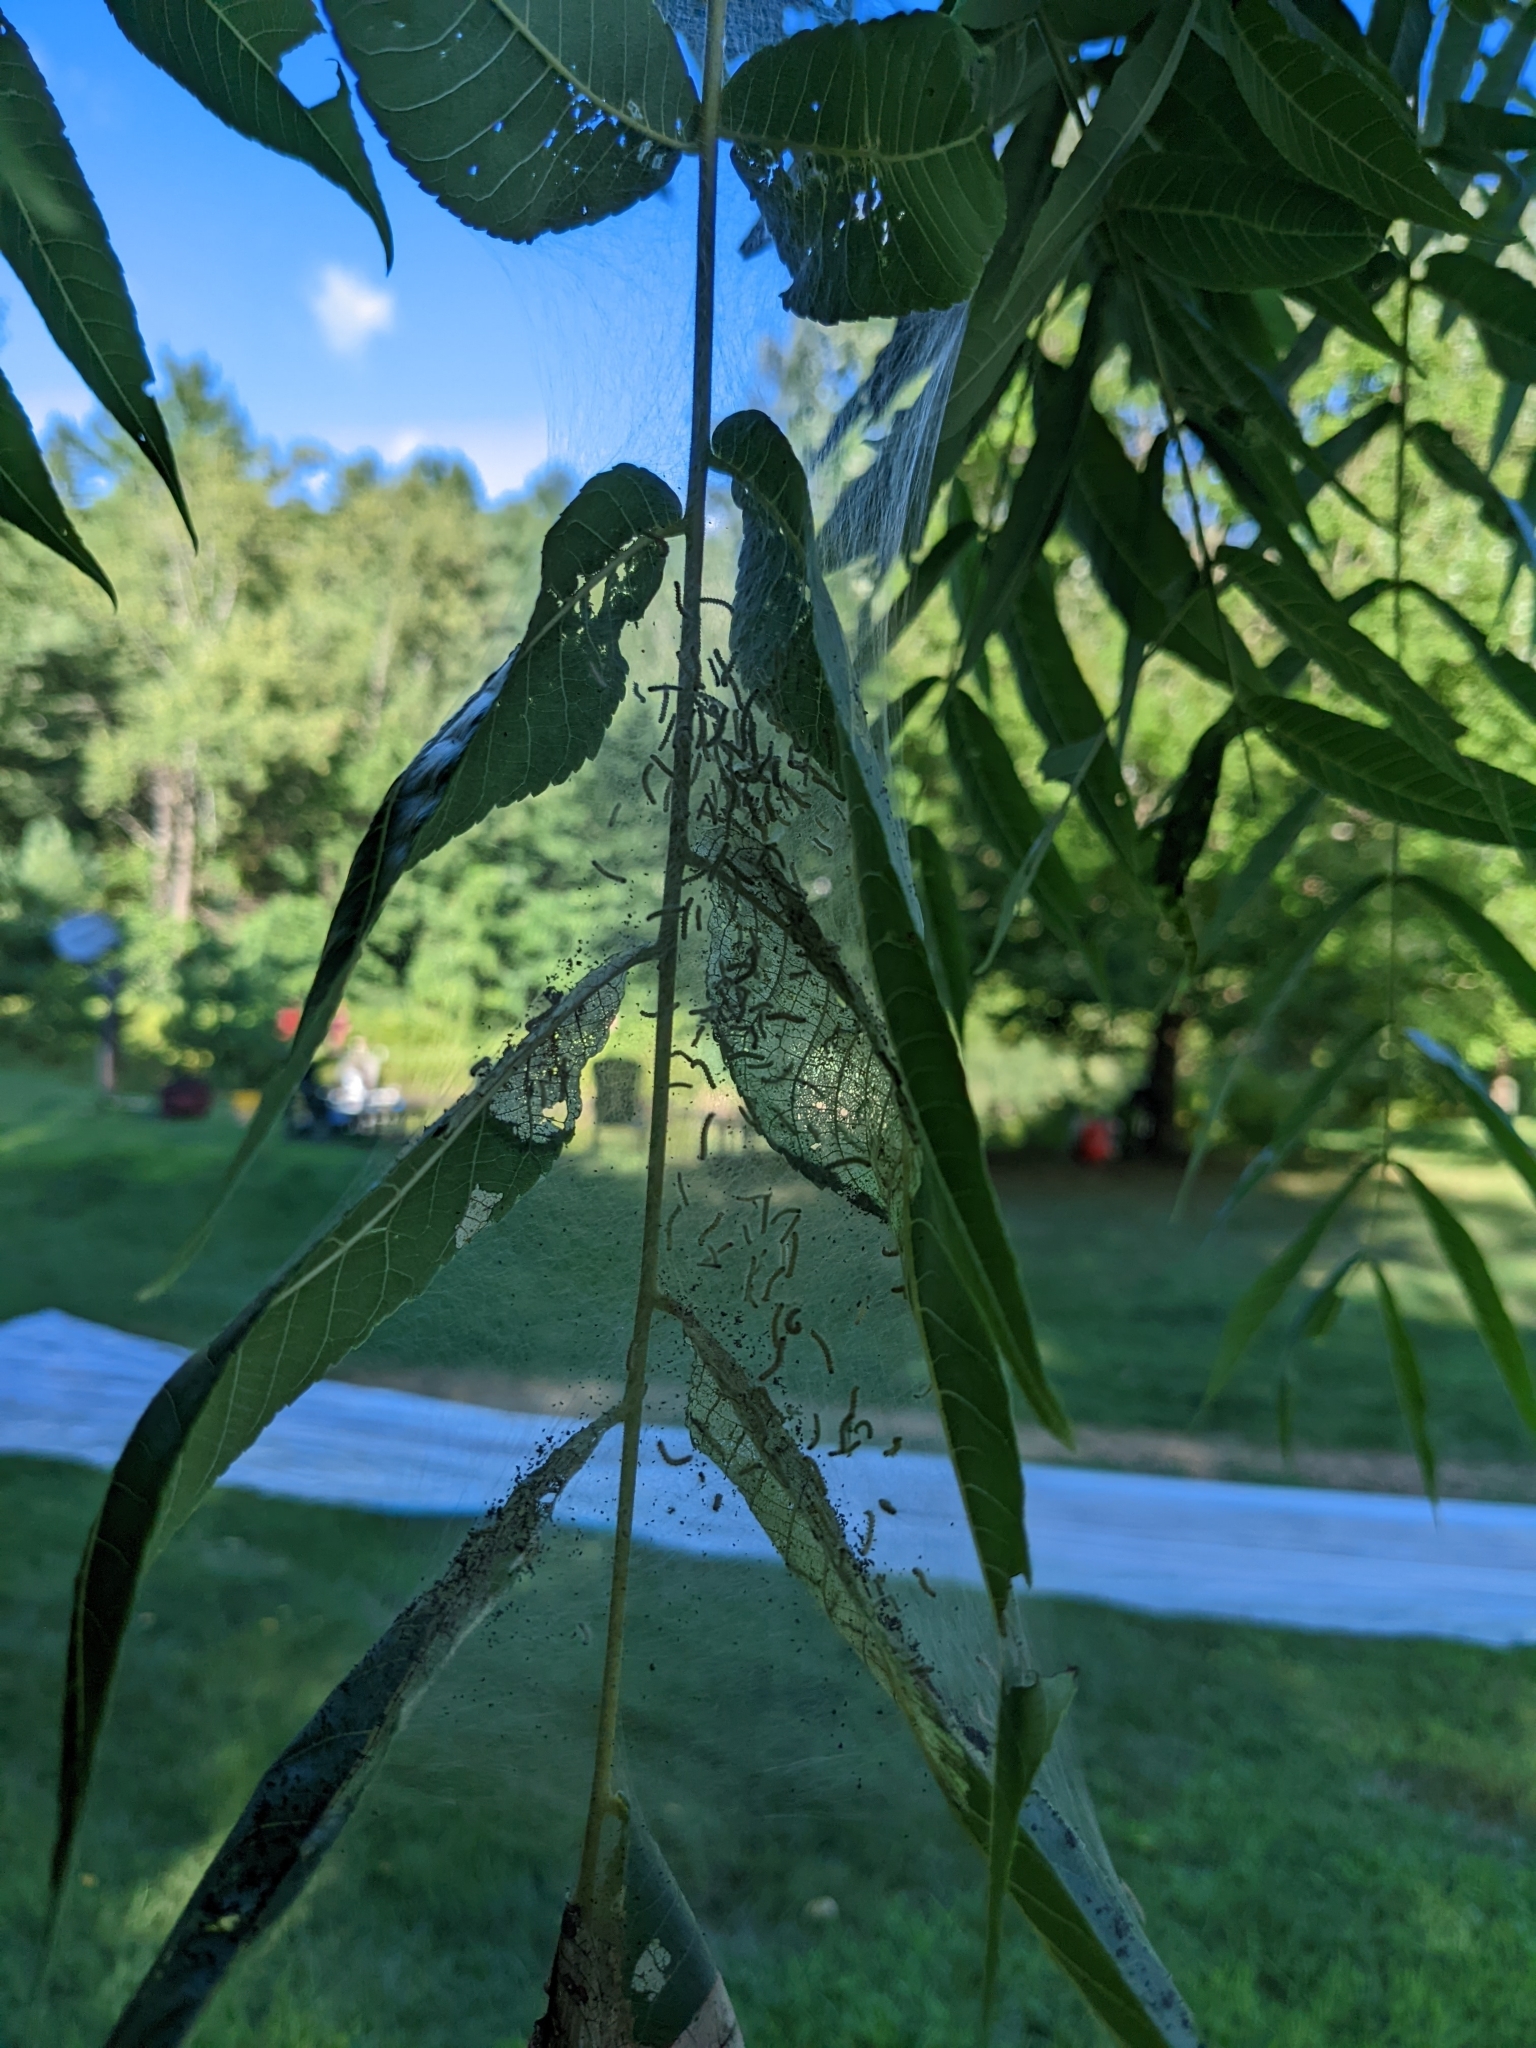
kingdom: Animalia
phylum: Arthropoda
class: Insecta
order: Lepidoptera
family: Erebidae
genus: Hyphantria
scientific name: Hyphantria cunea
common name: American white moth
